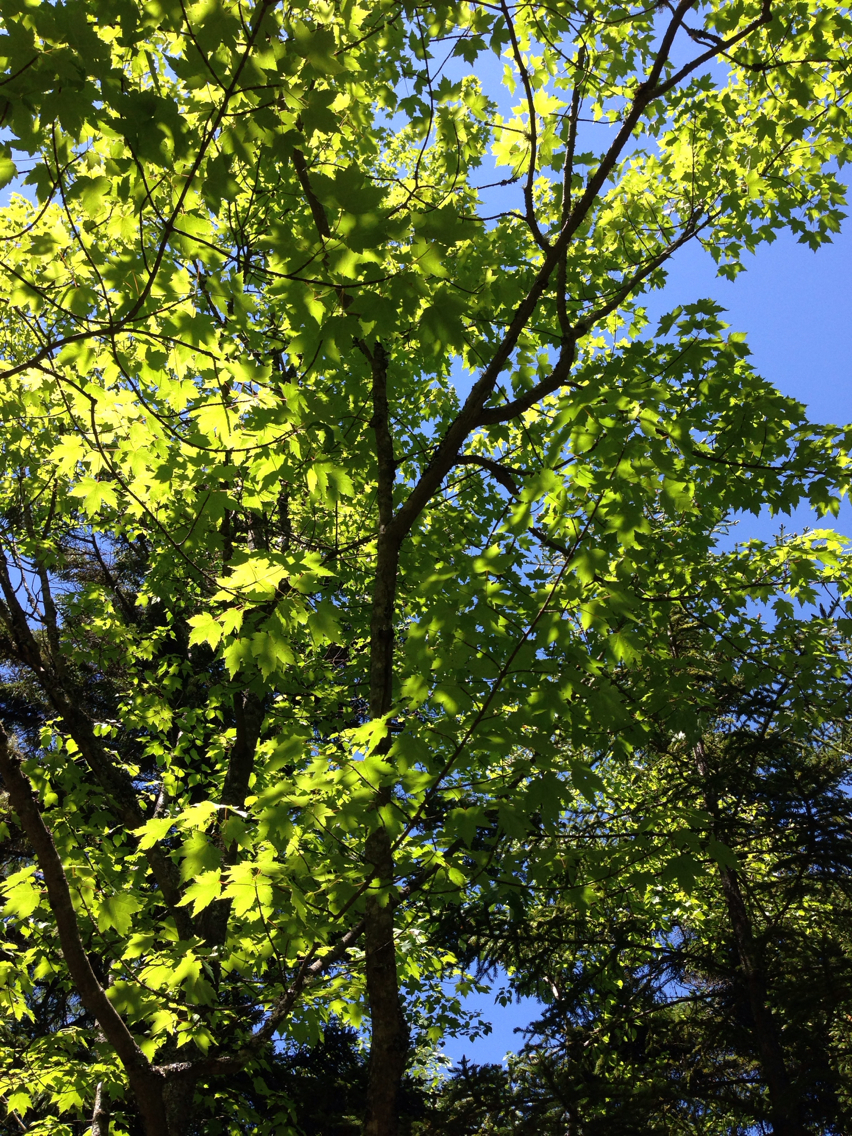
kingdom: Plantae
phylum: Tracheophyta
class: Magnoliopsida
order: Sapindales
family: Sapindaceae
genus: Acer
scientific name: Acer rubrum
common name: Red maple
